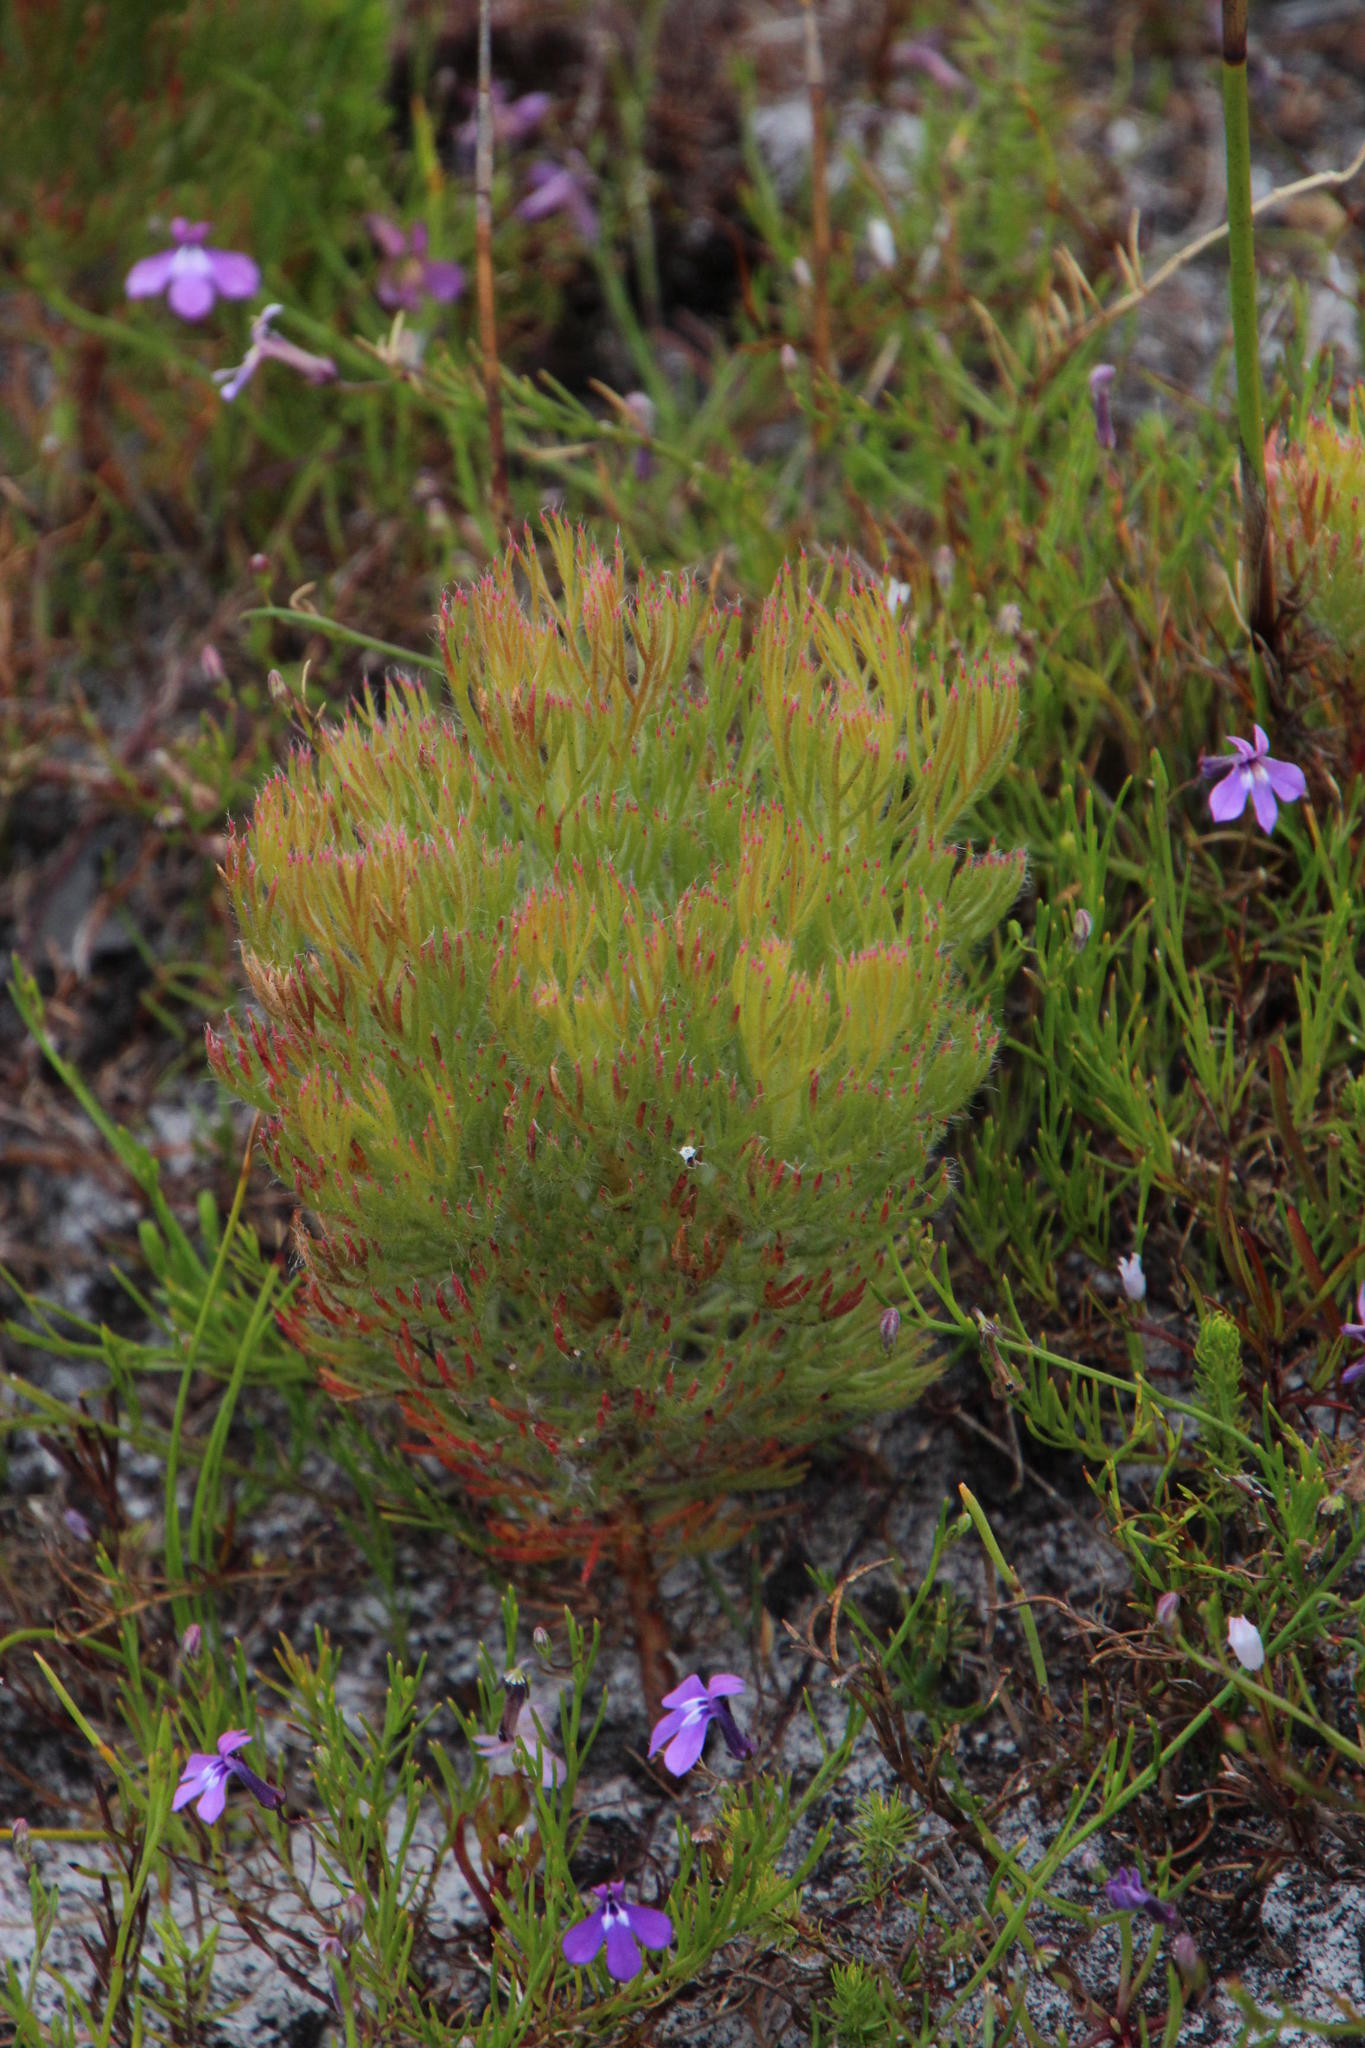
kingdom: Plantae
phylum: Tracheophyta
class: Magnoliopsida
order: Proteales
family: Proteaceae
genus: Serruria
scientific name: Serruria glomerata
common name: Cluster spiderhead
